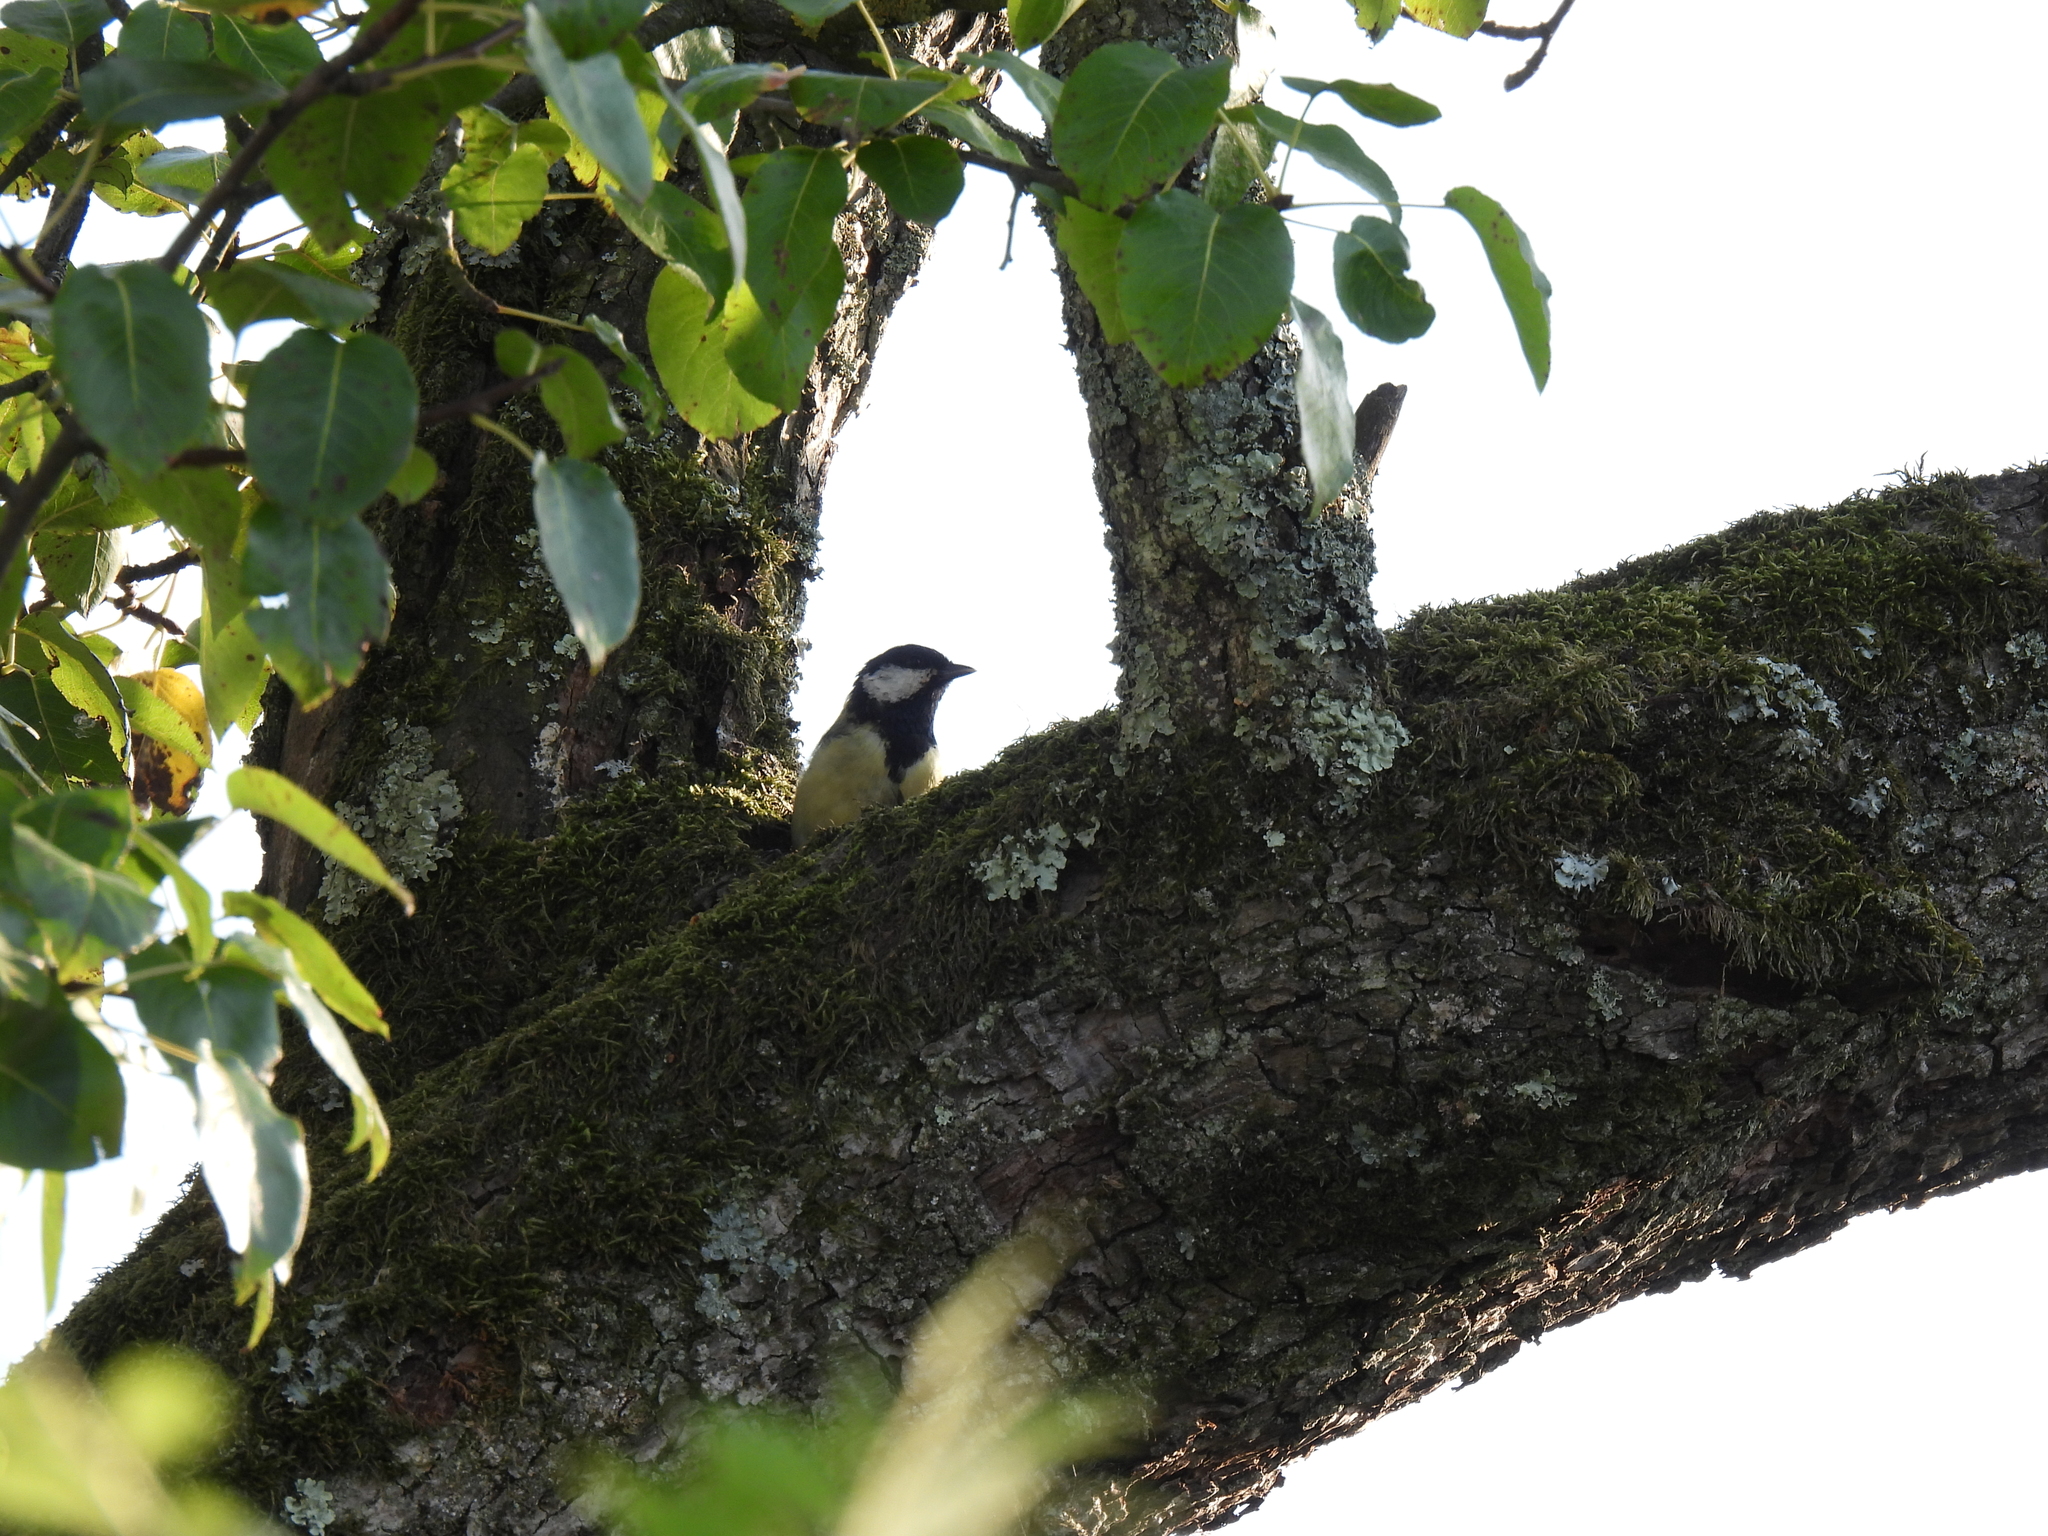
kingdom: Animalia
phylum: Chordata
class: Aves
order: Passeriformes
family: Paridae
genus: Parus
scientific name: Parus major
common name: Great tit
